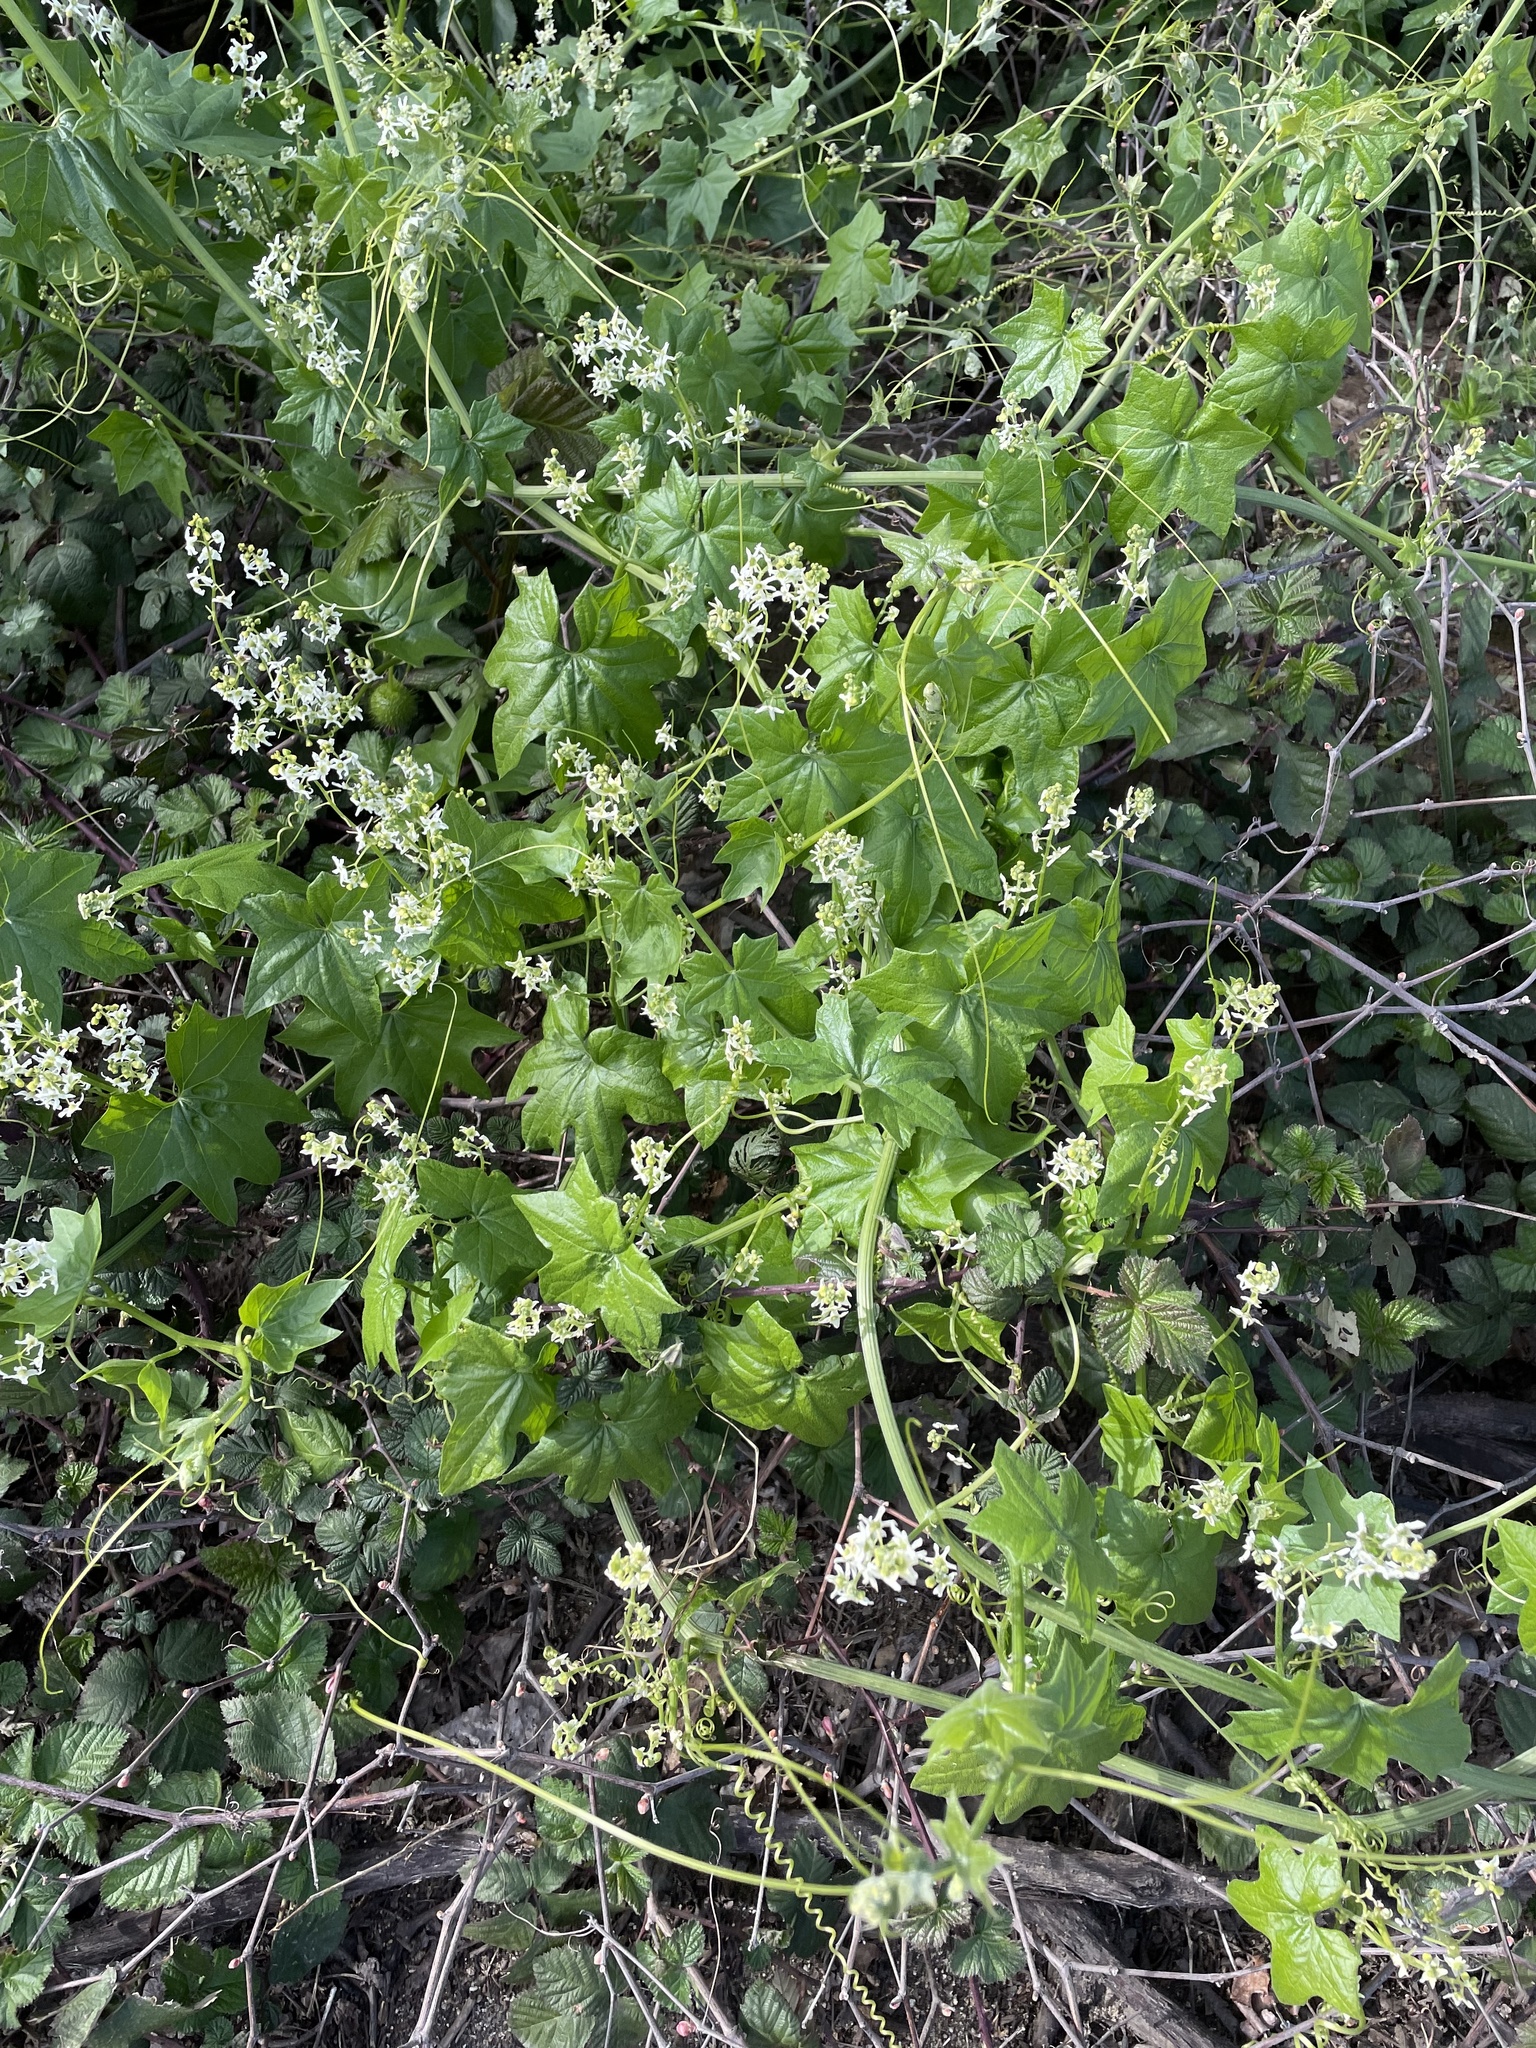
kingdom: Plantae
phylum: Tracheophyta
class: Magnoliopsida
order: Cucurbitales
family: Cucurbitaceae
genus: Marah
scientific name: Marah fabacea
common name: California manroot
